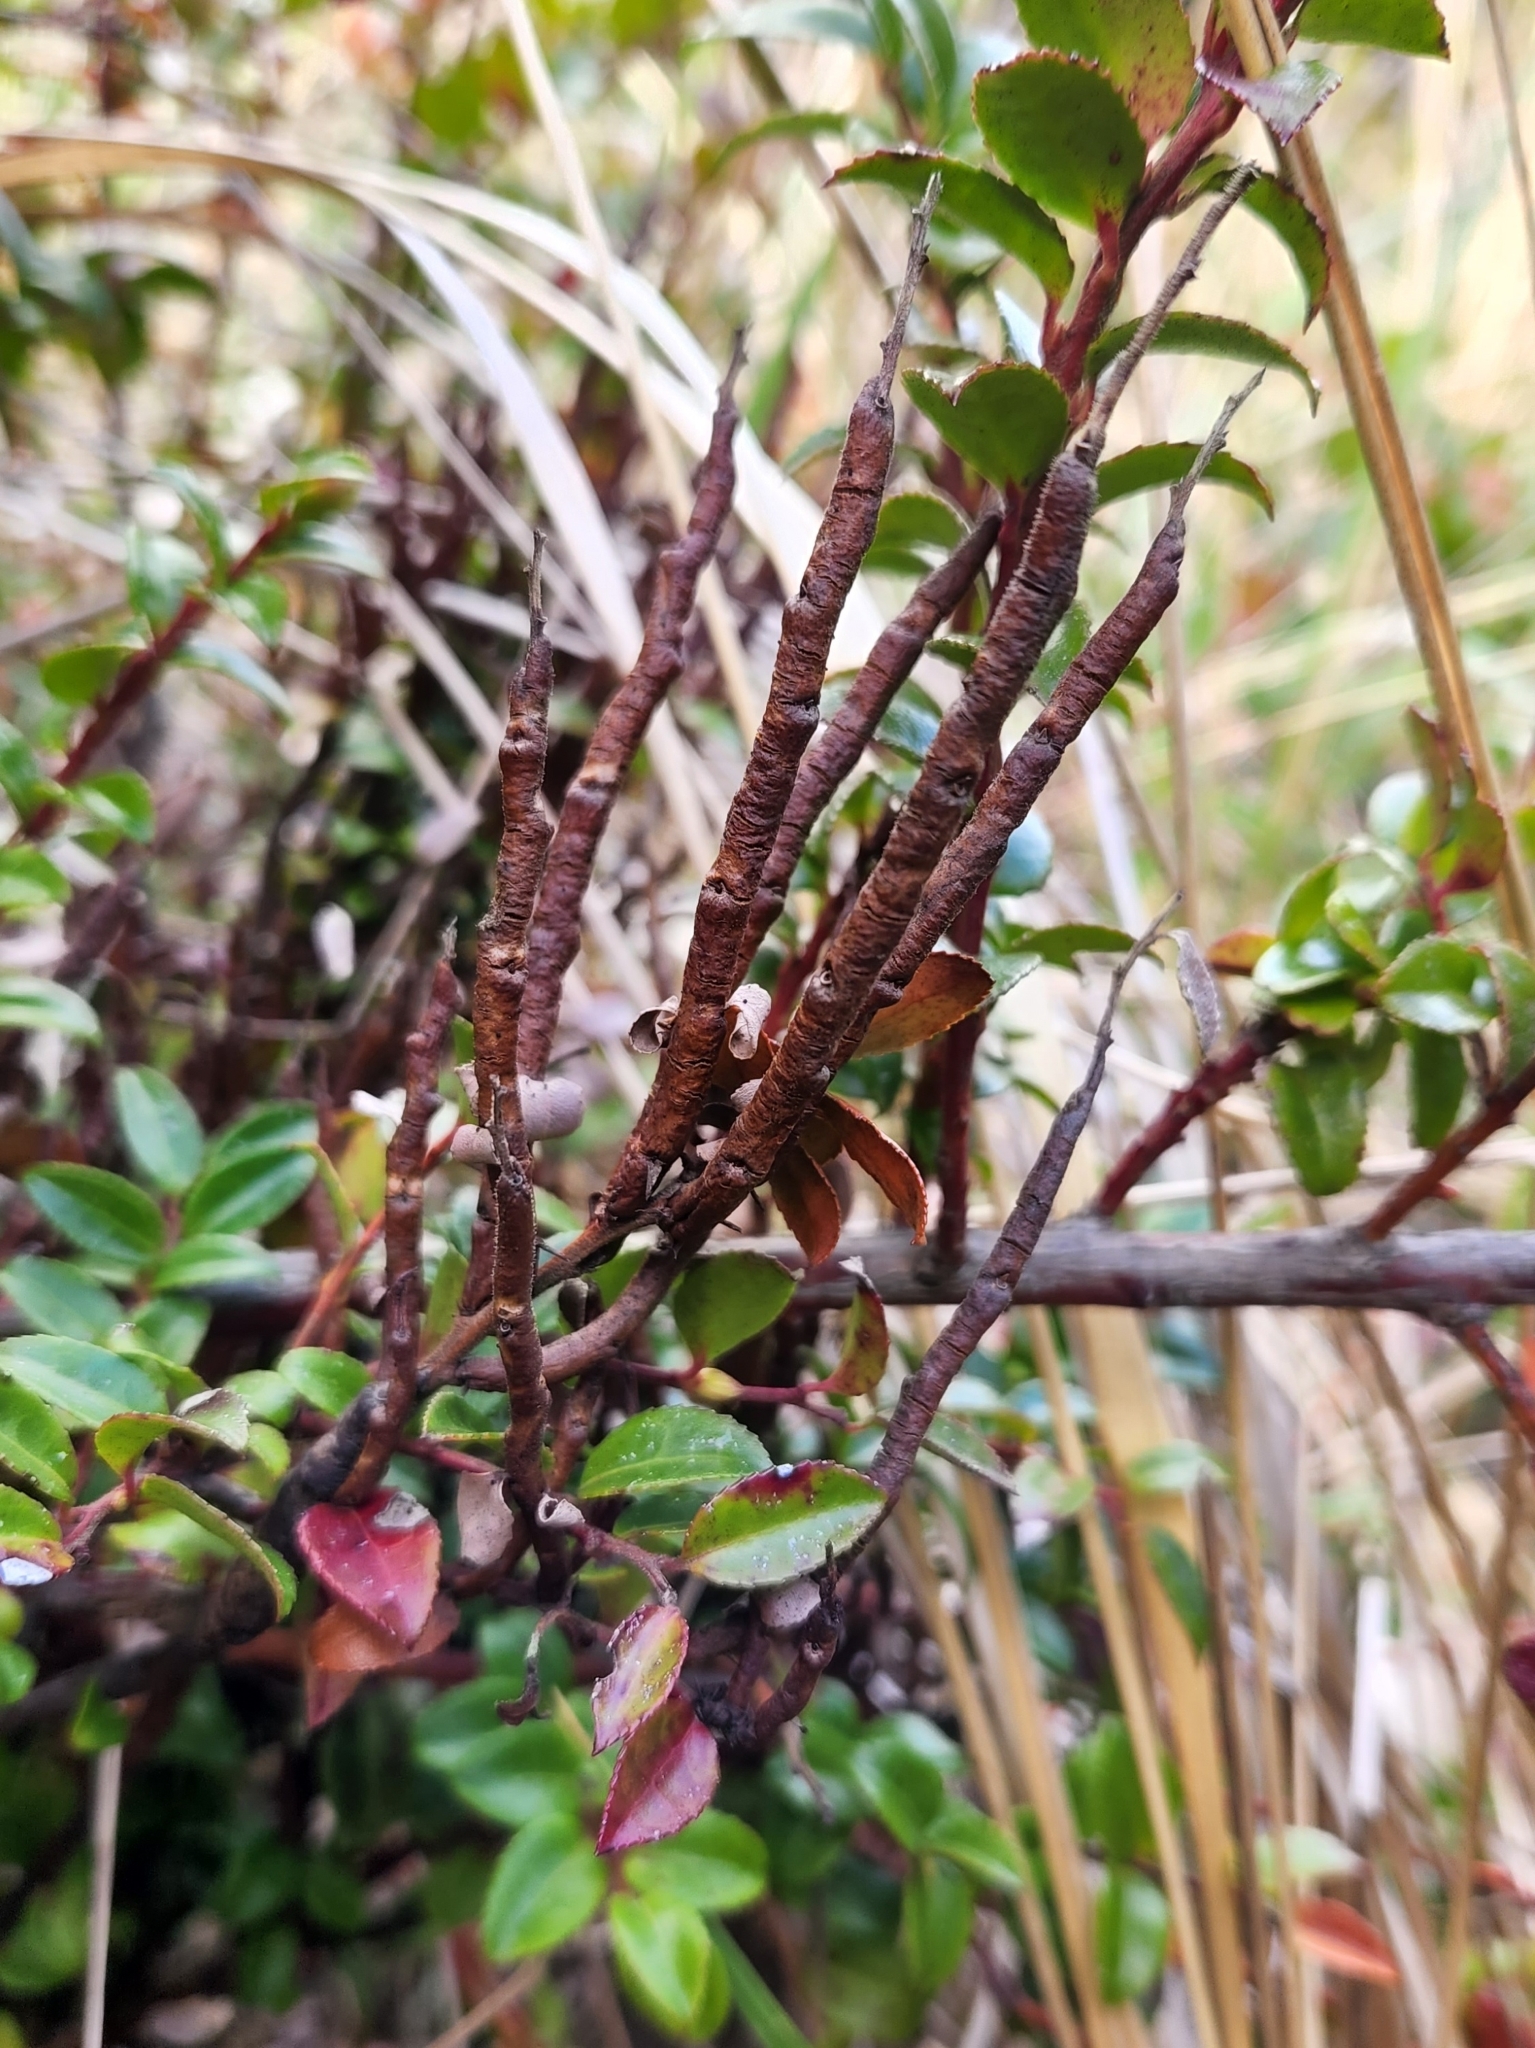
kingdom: Fungi
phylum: Basidiomycota
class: Pucciniomycetes
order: Pucciniales
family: Pucciniastraceae
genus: Calyptospora
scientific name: Calyptospora
